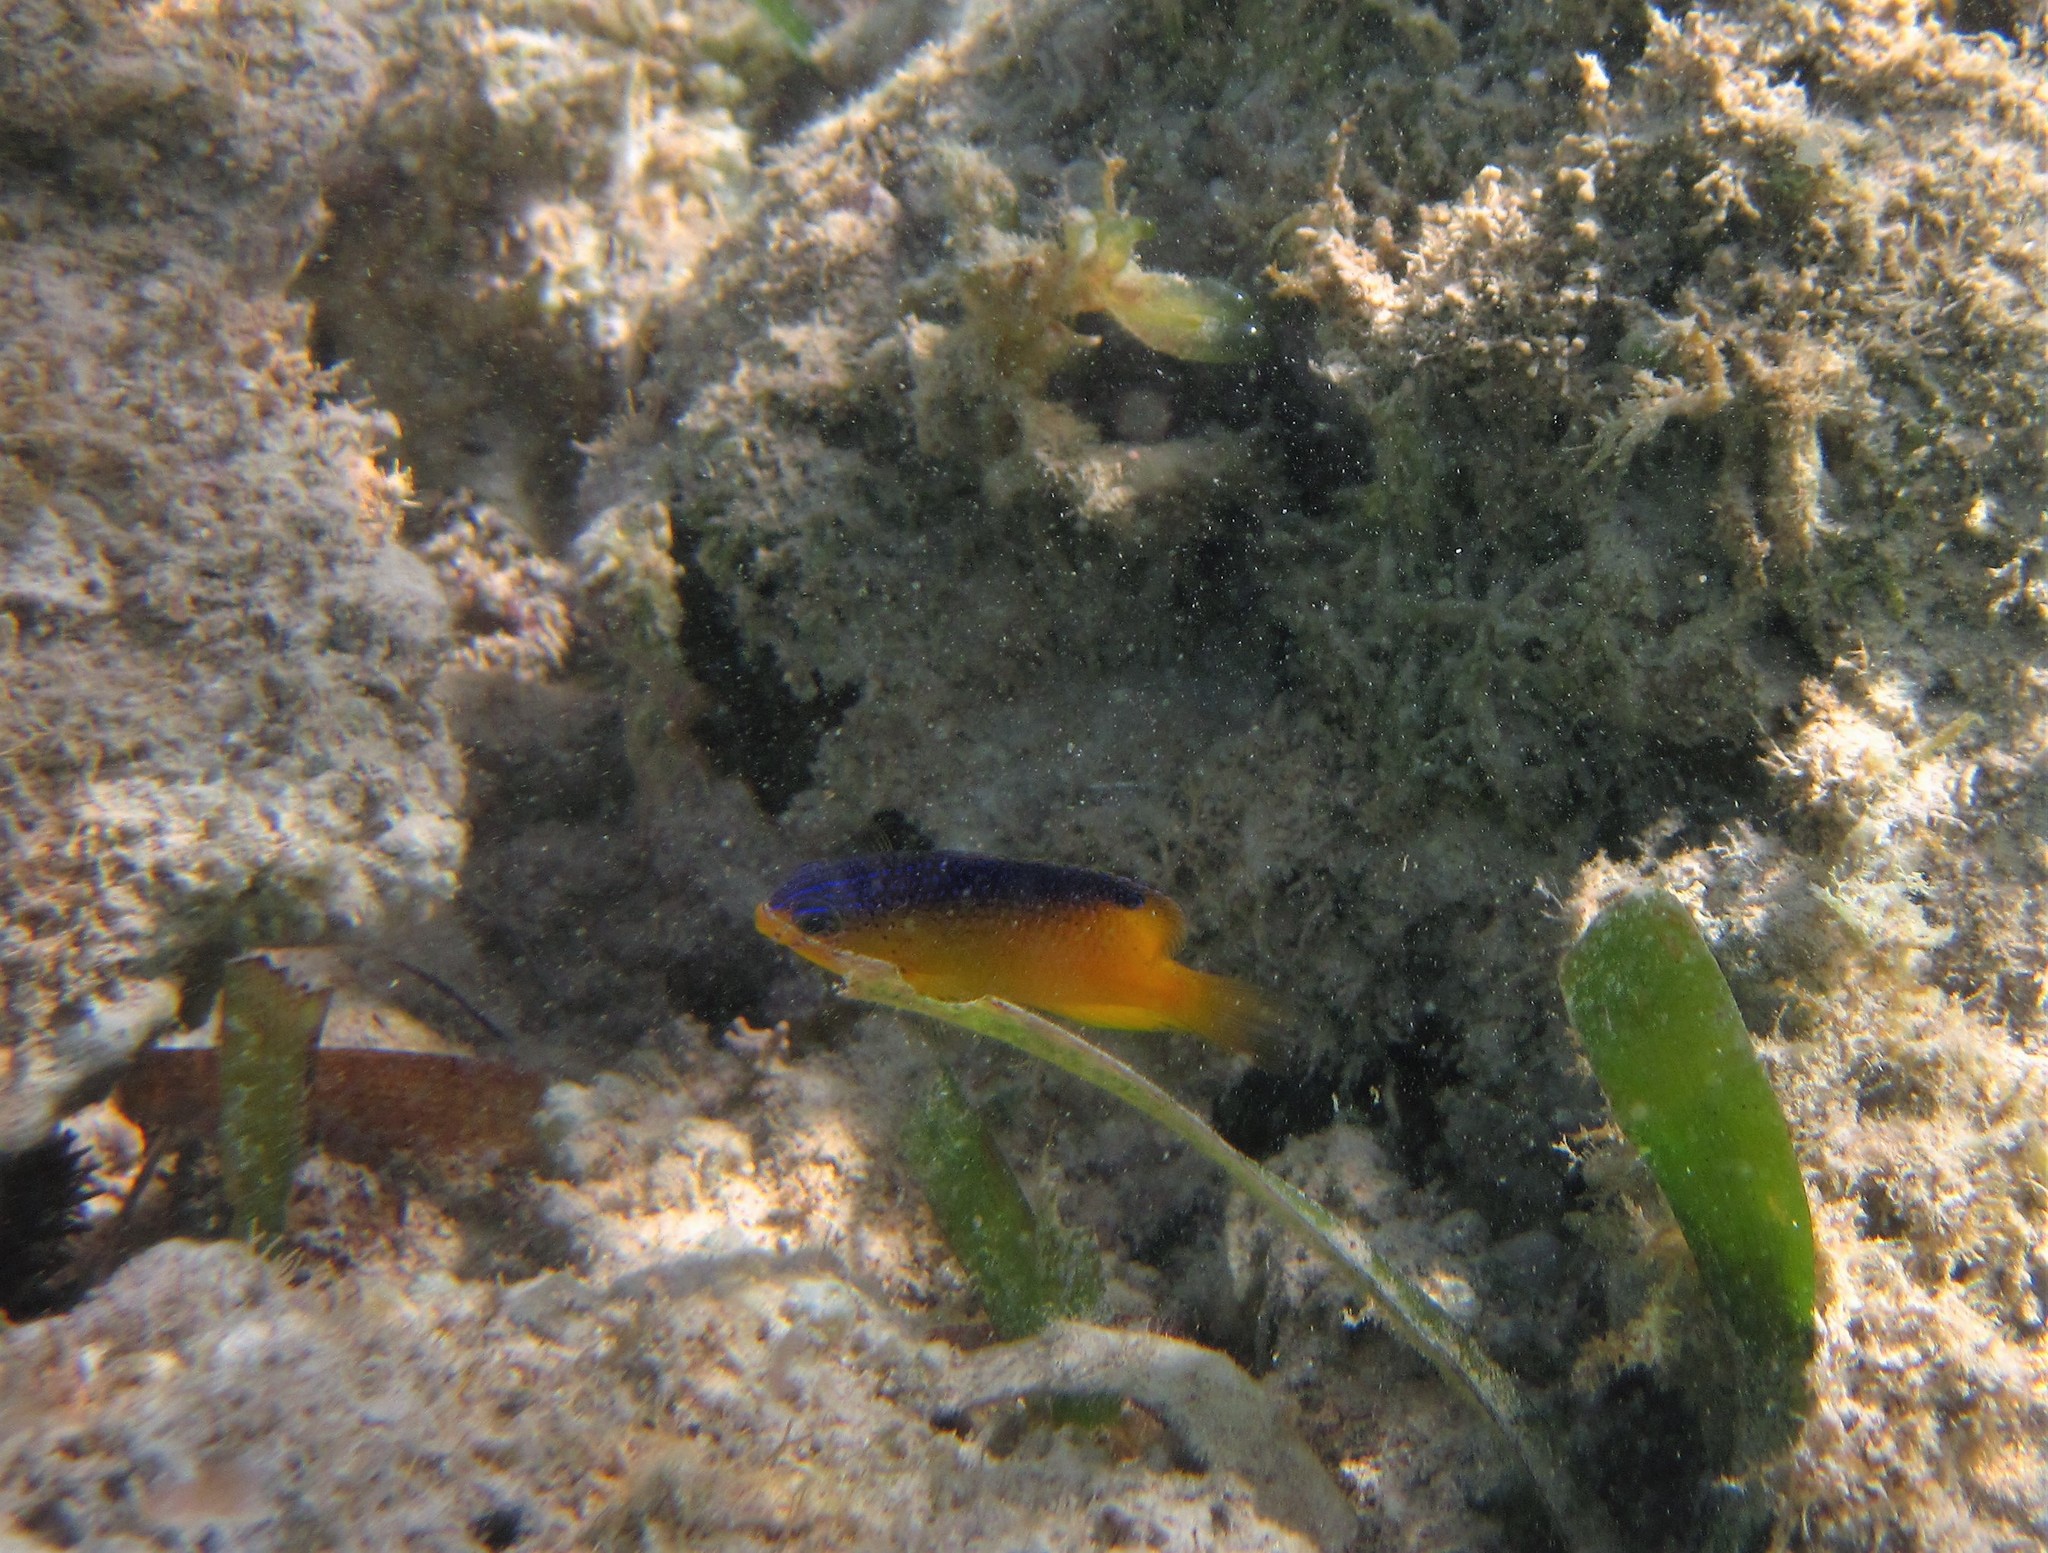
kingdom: Animalia
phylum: Chordata
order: Perciformes
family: Pomacentridae
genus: Stegastes
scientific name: Stegastes leucostictus
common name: Beaugregory
